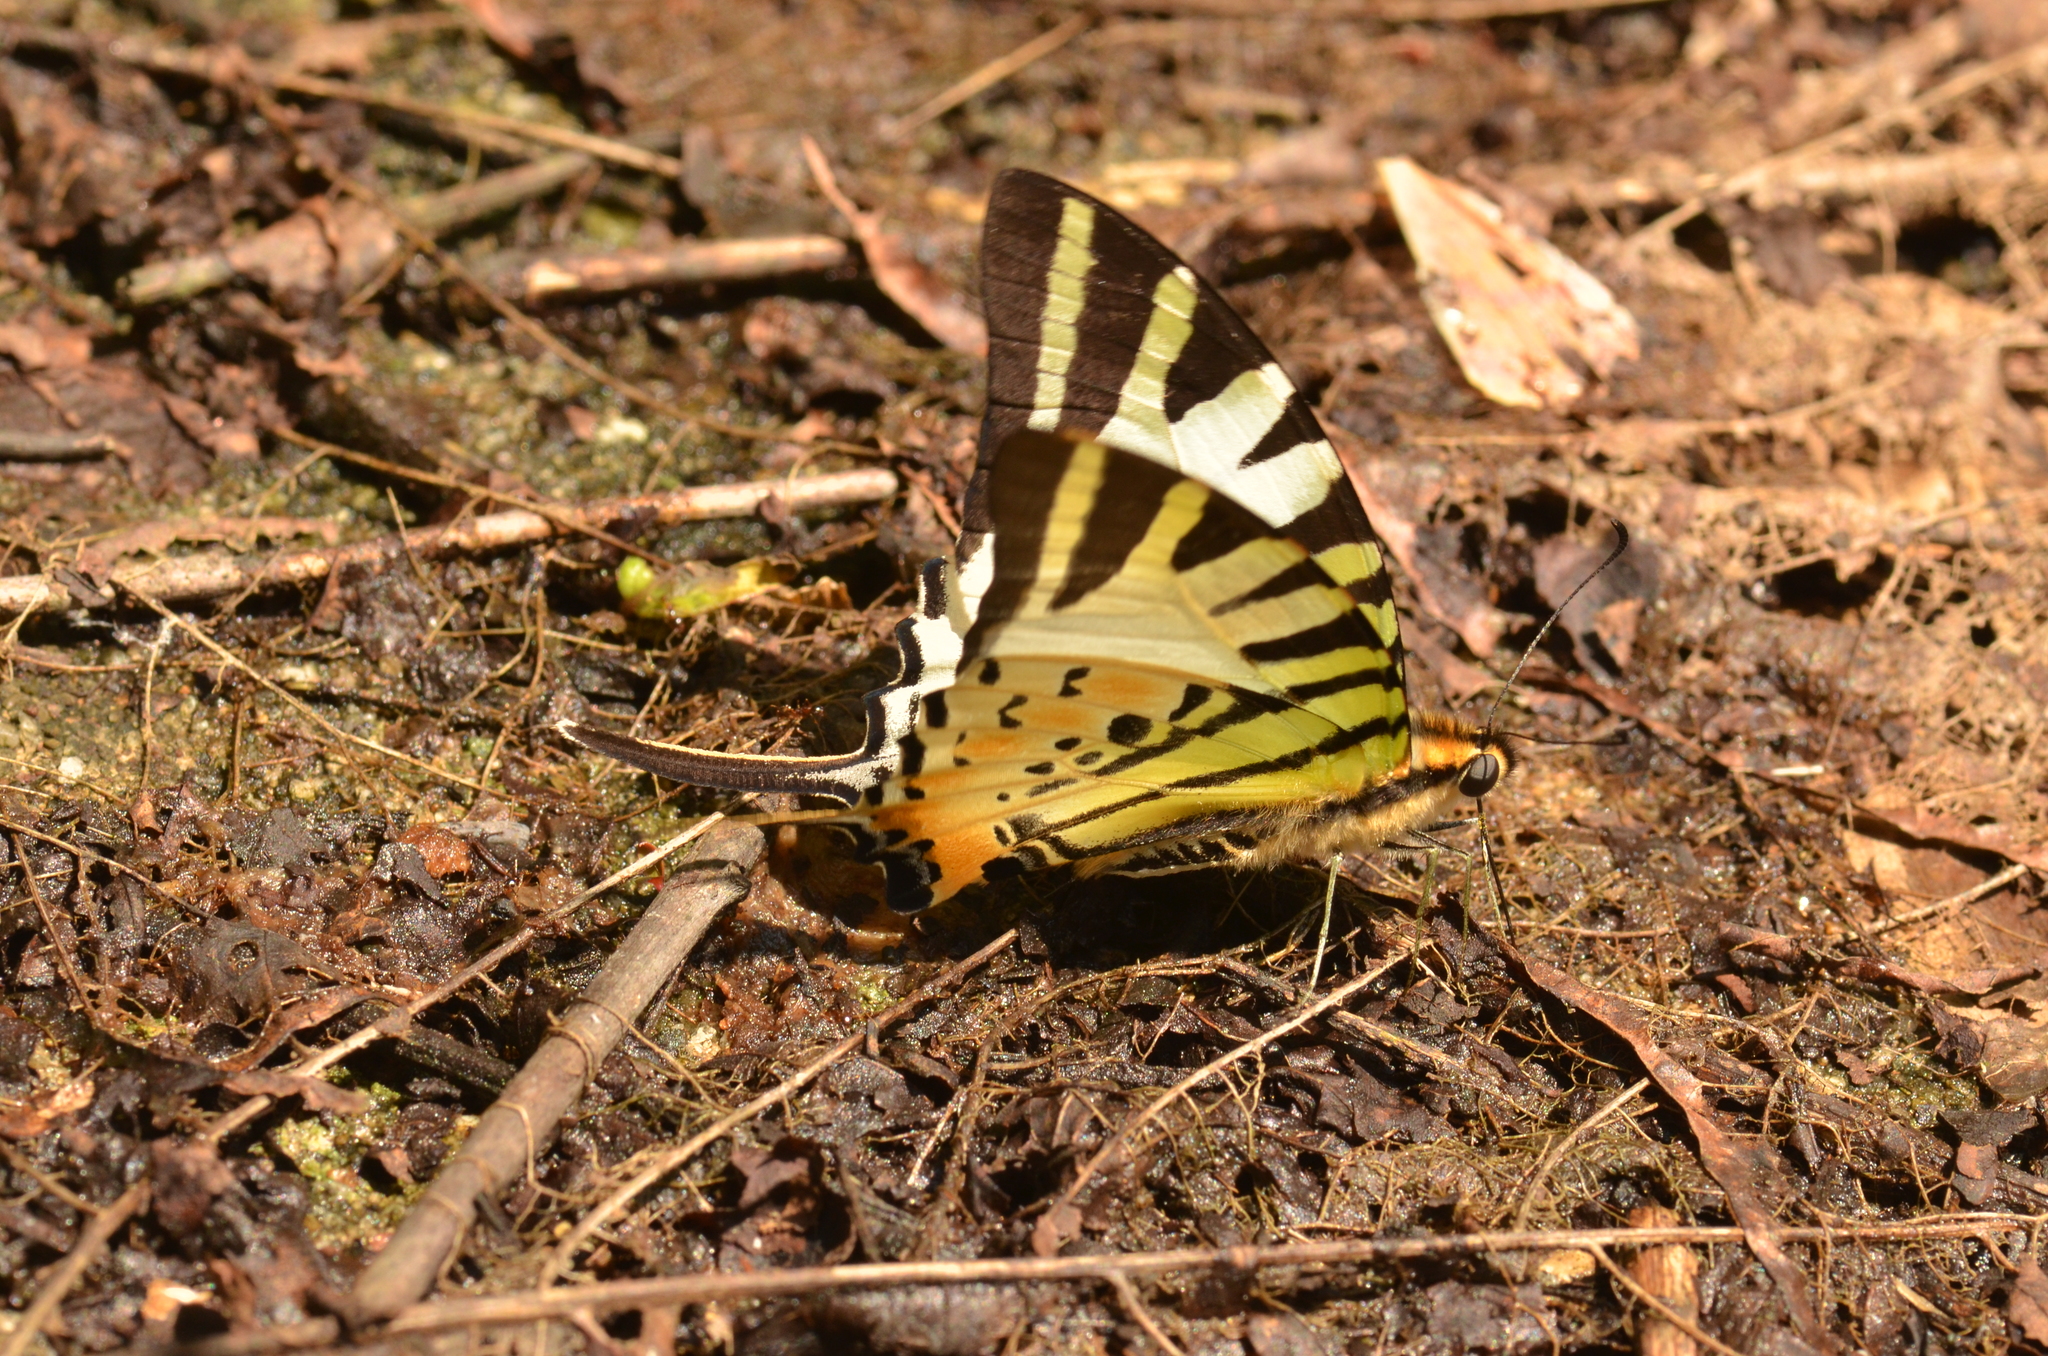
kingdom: Animalia
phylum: Arthropoda
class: Insecta
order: Lepidoptera
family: Papilionidae
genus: Graphium
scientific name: Graphium antiphates
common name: Fivebar swordtail
